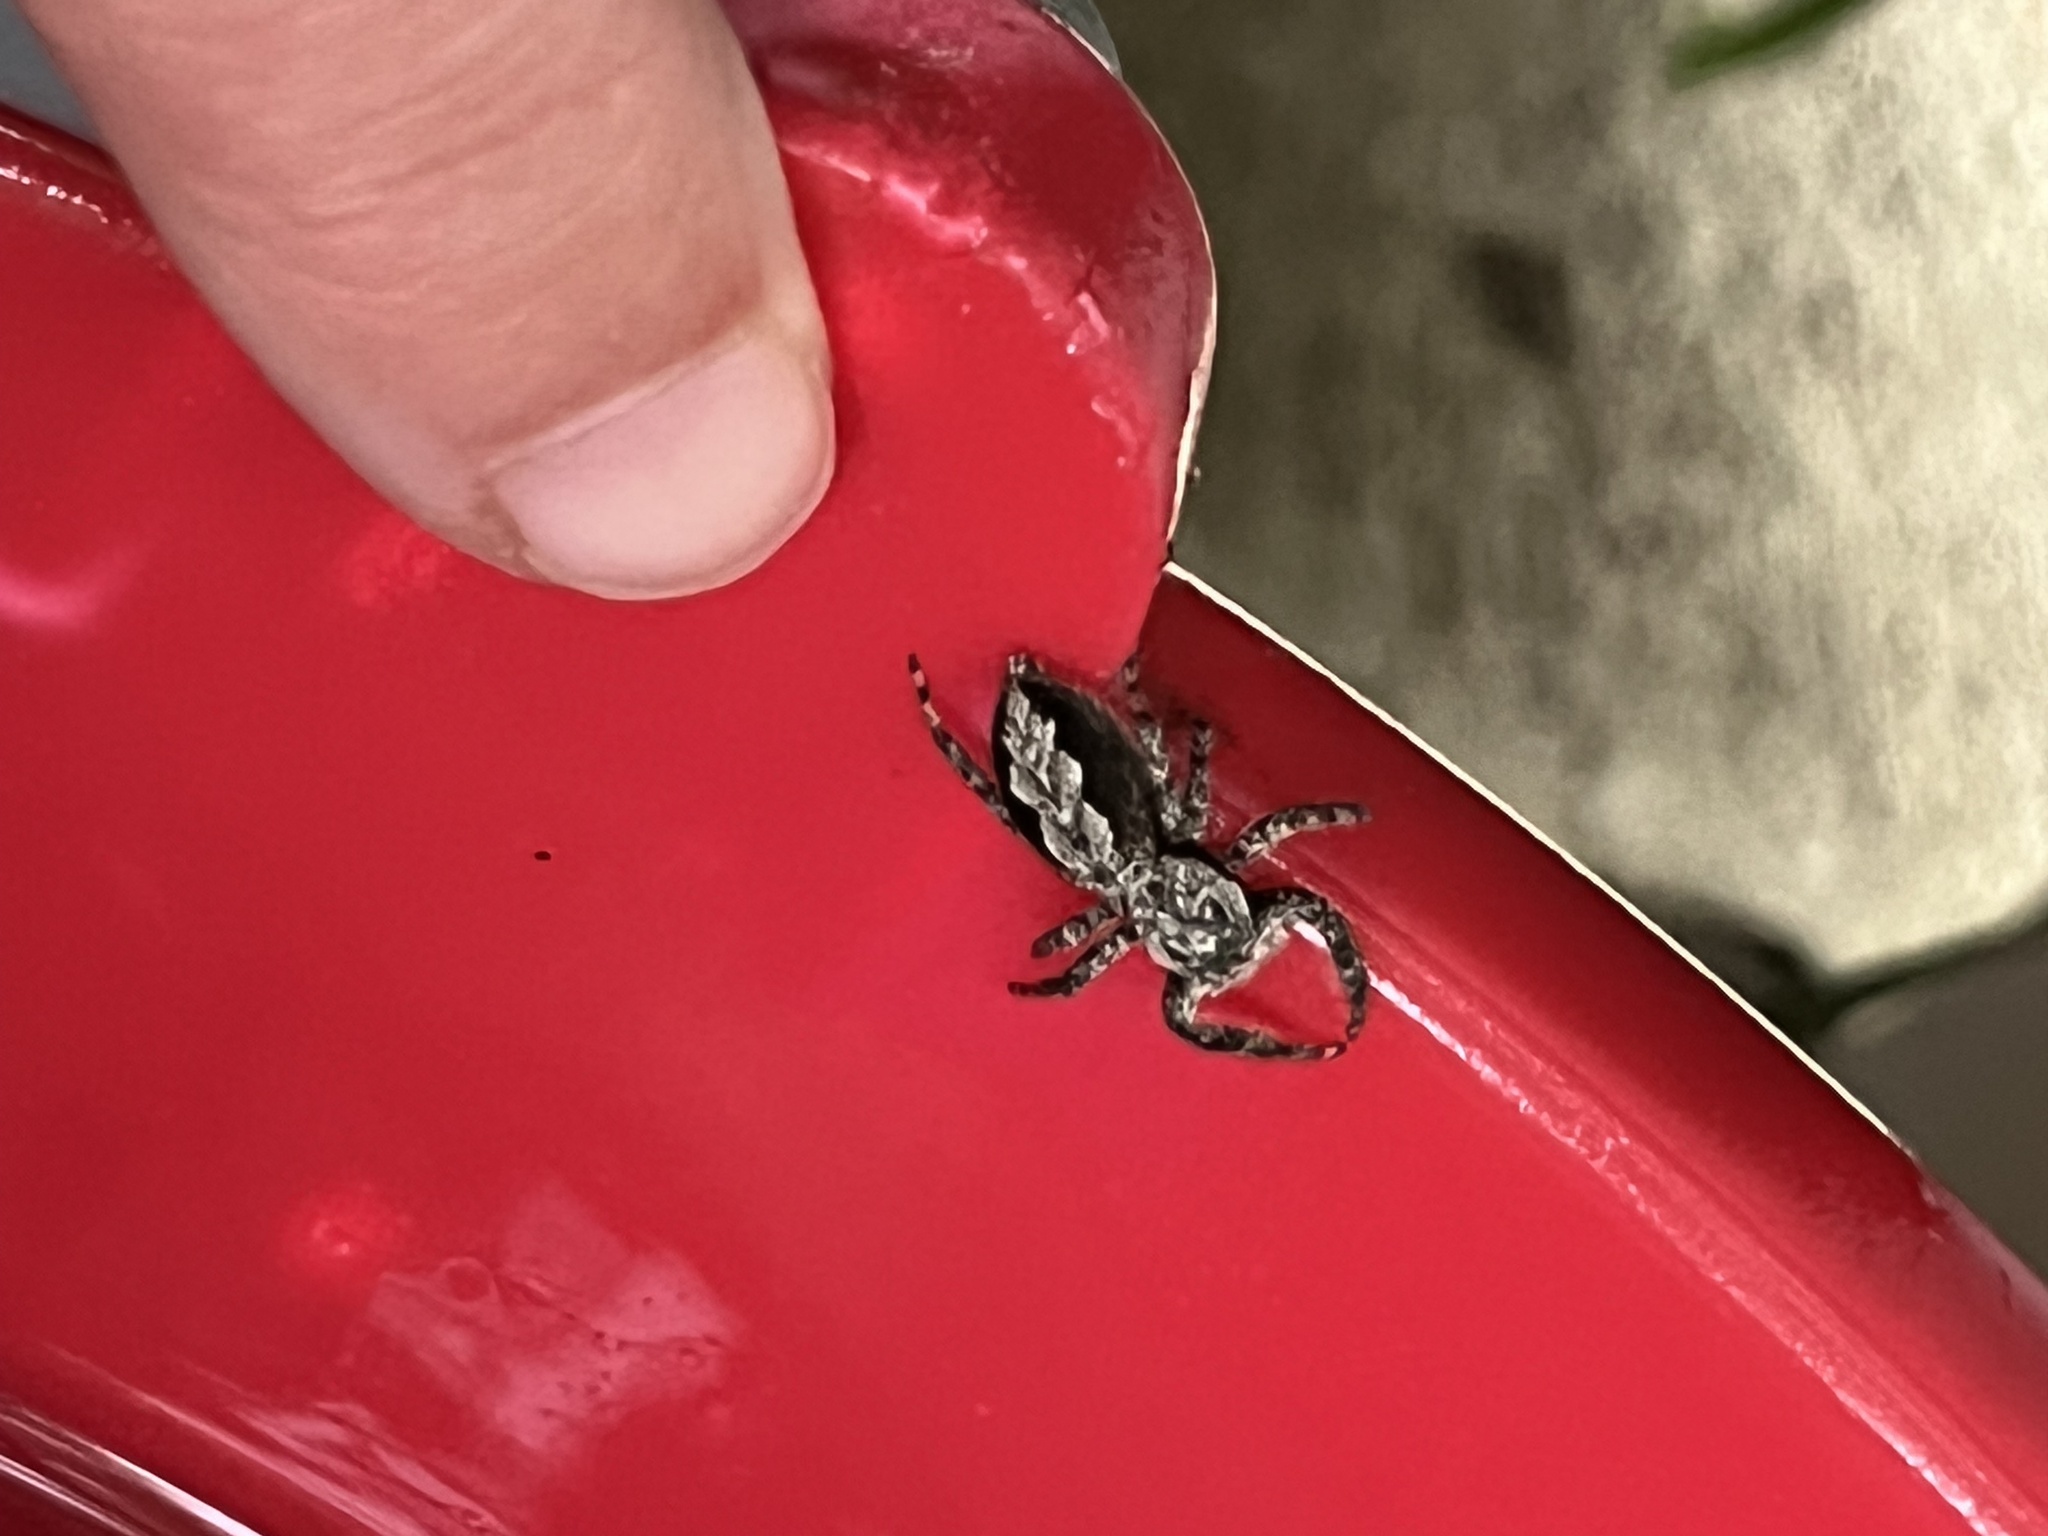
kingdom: Animalia
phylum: Arthropoda
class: Arachnida
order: Araneae
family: Salticidae
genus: Platycryptus
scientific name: Platycryptus undatus
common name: Tan jumping spider
